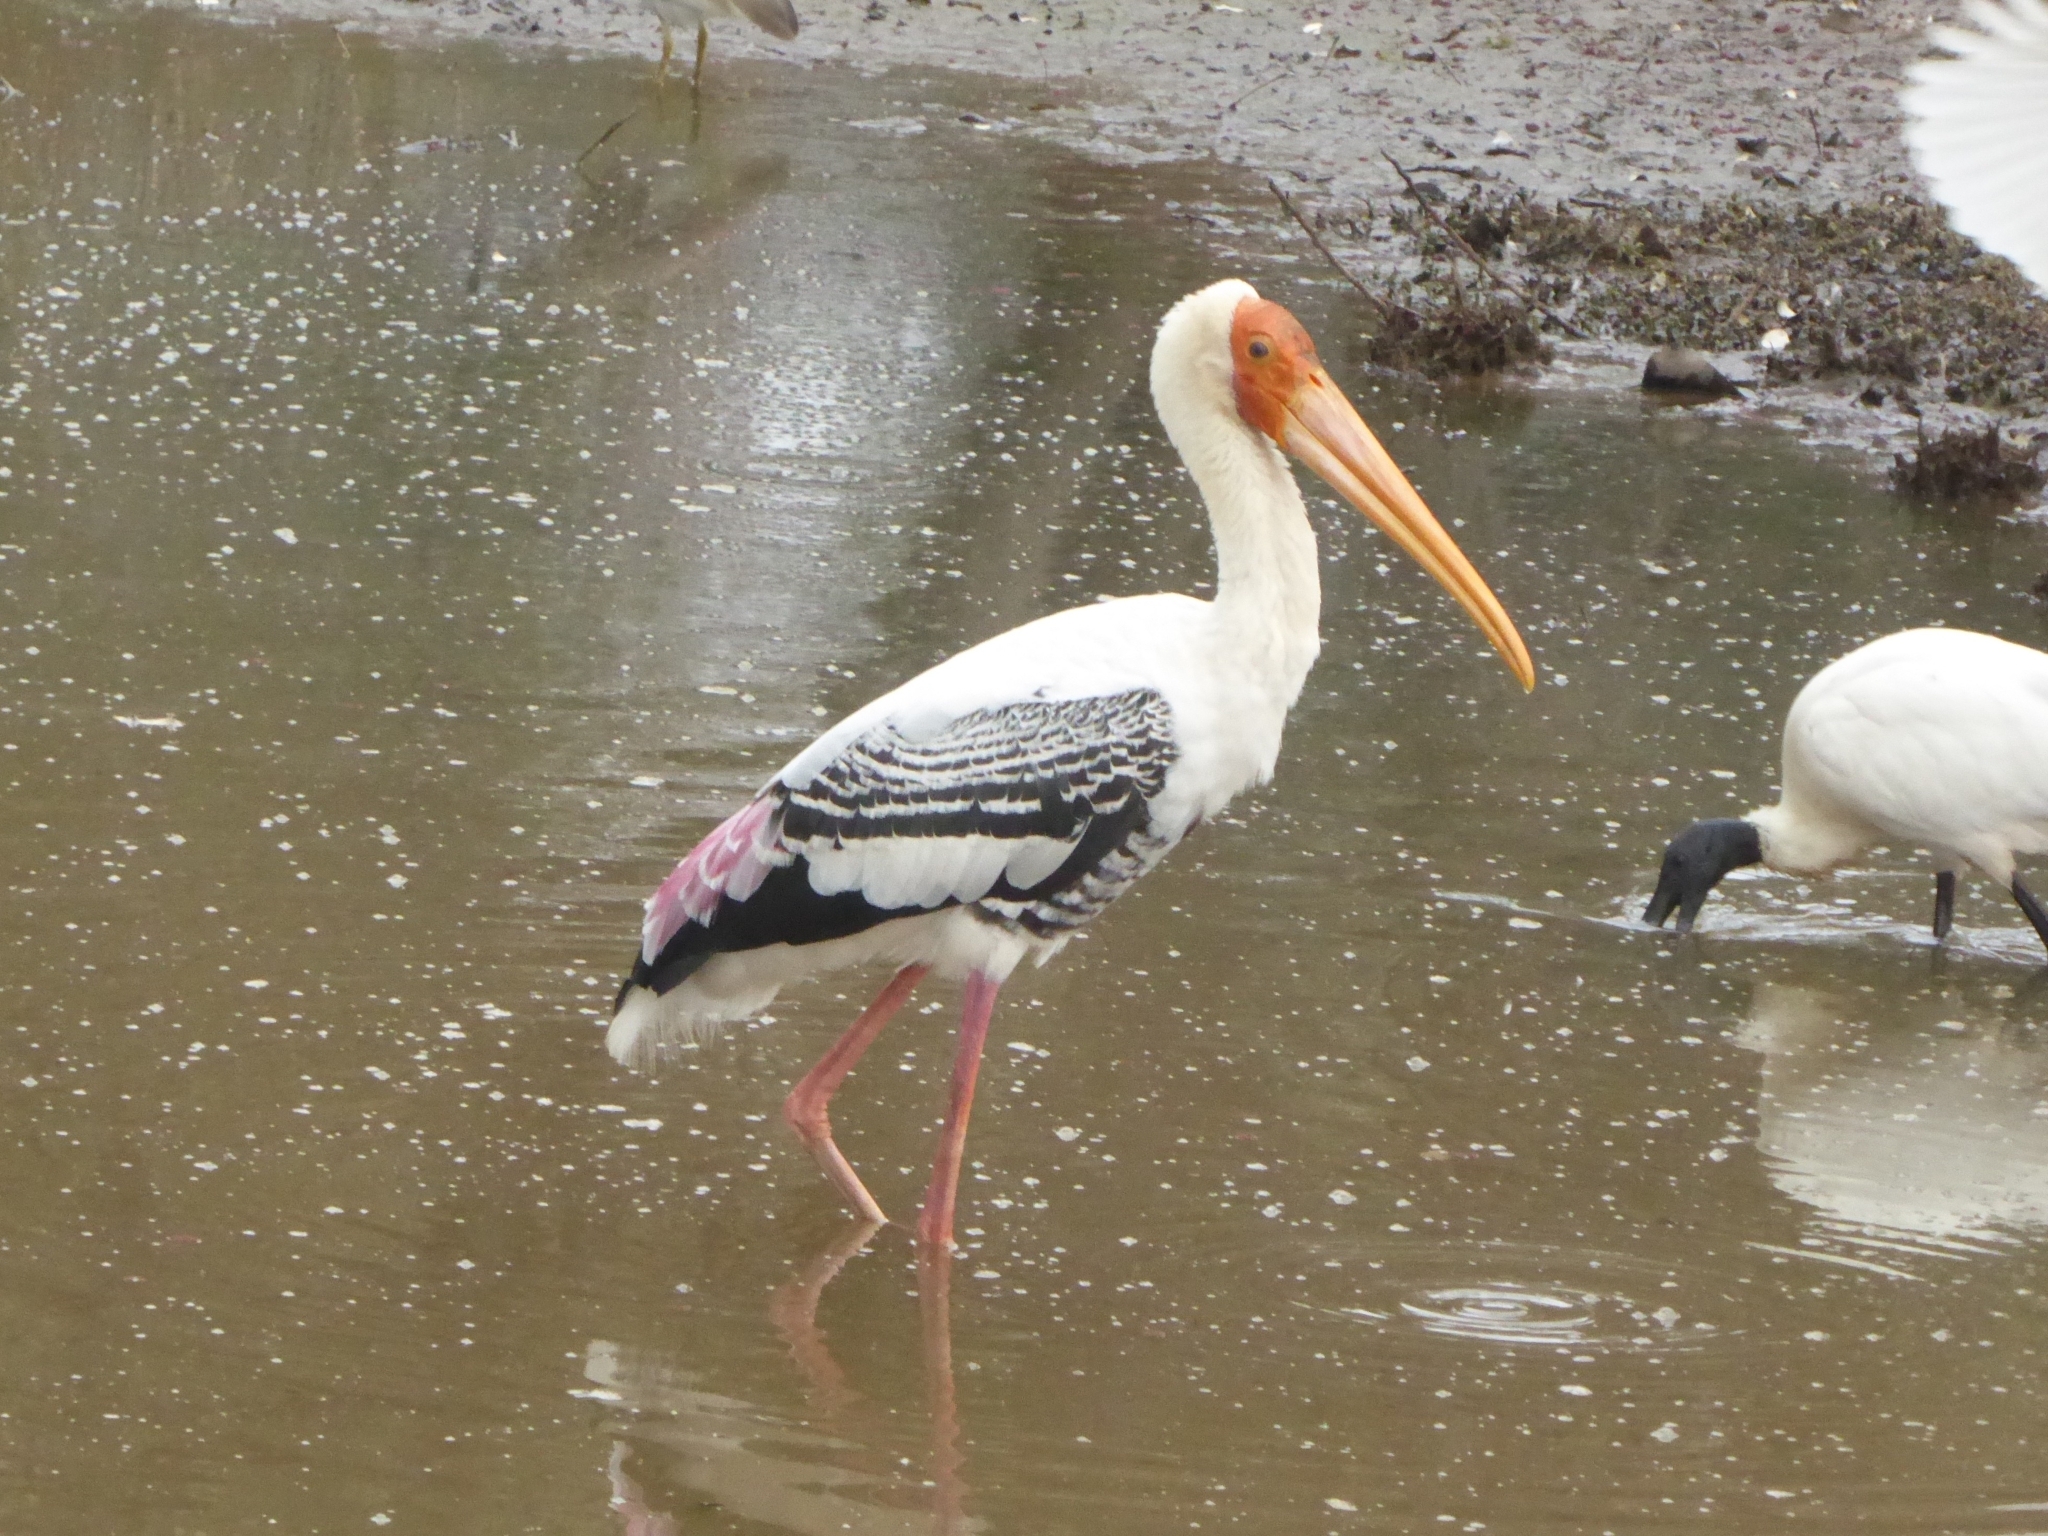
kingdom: Animalia
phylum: Chordata
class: Aves
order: Ciconiiformes
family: Ciconiidae
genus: Mycteria
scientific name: Mycteria leucocephala
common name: Painted stork
